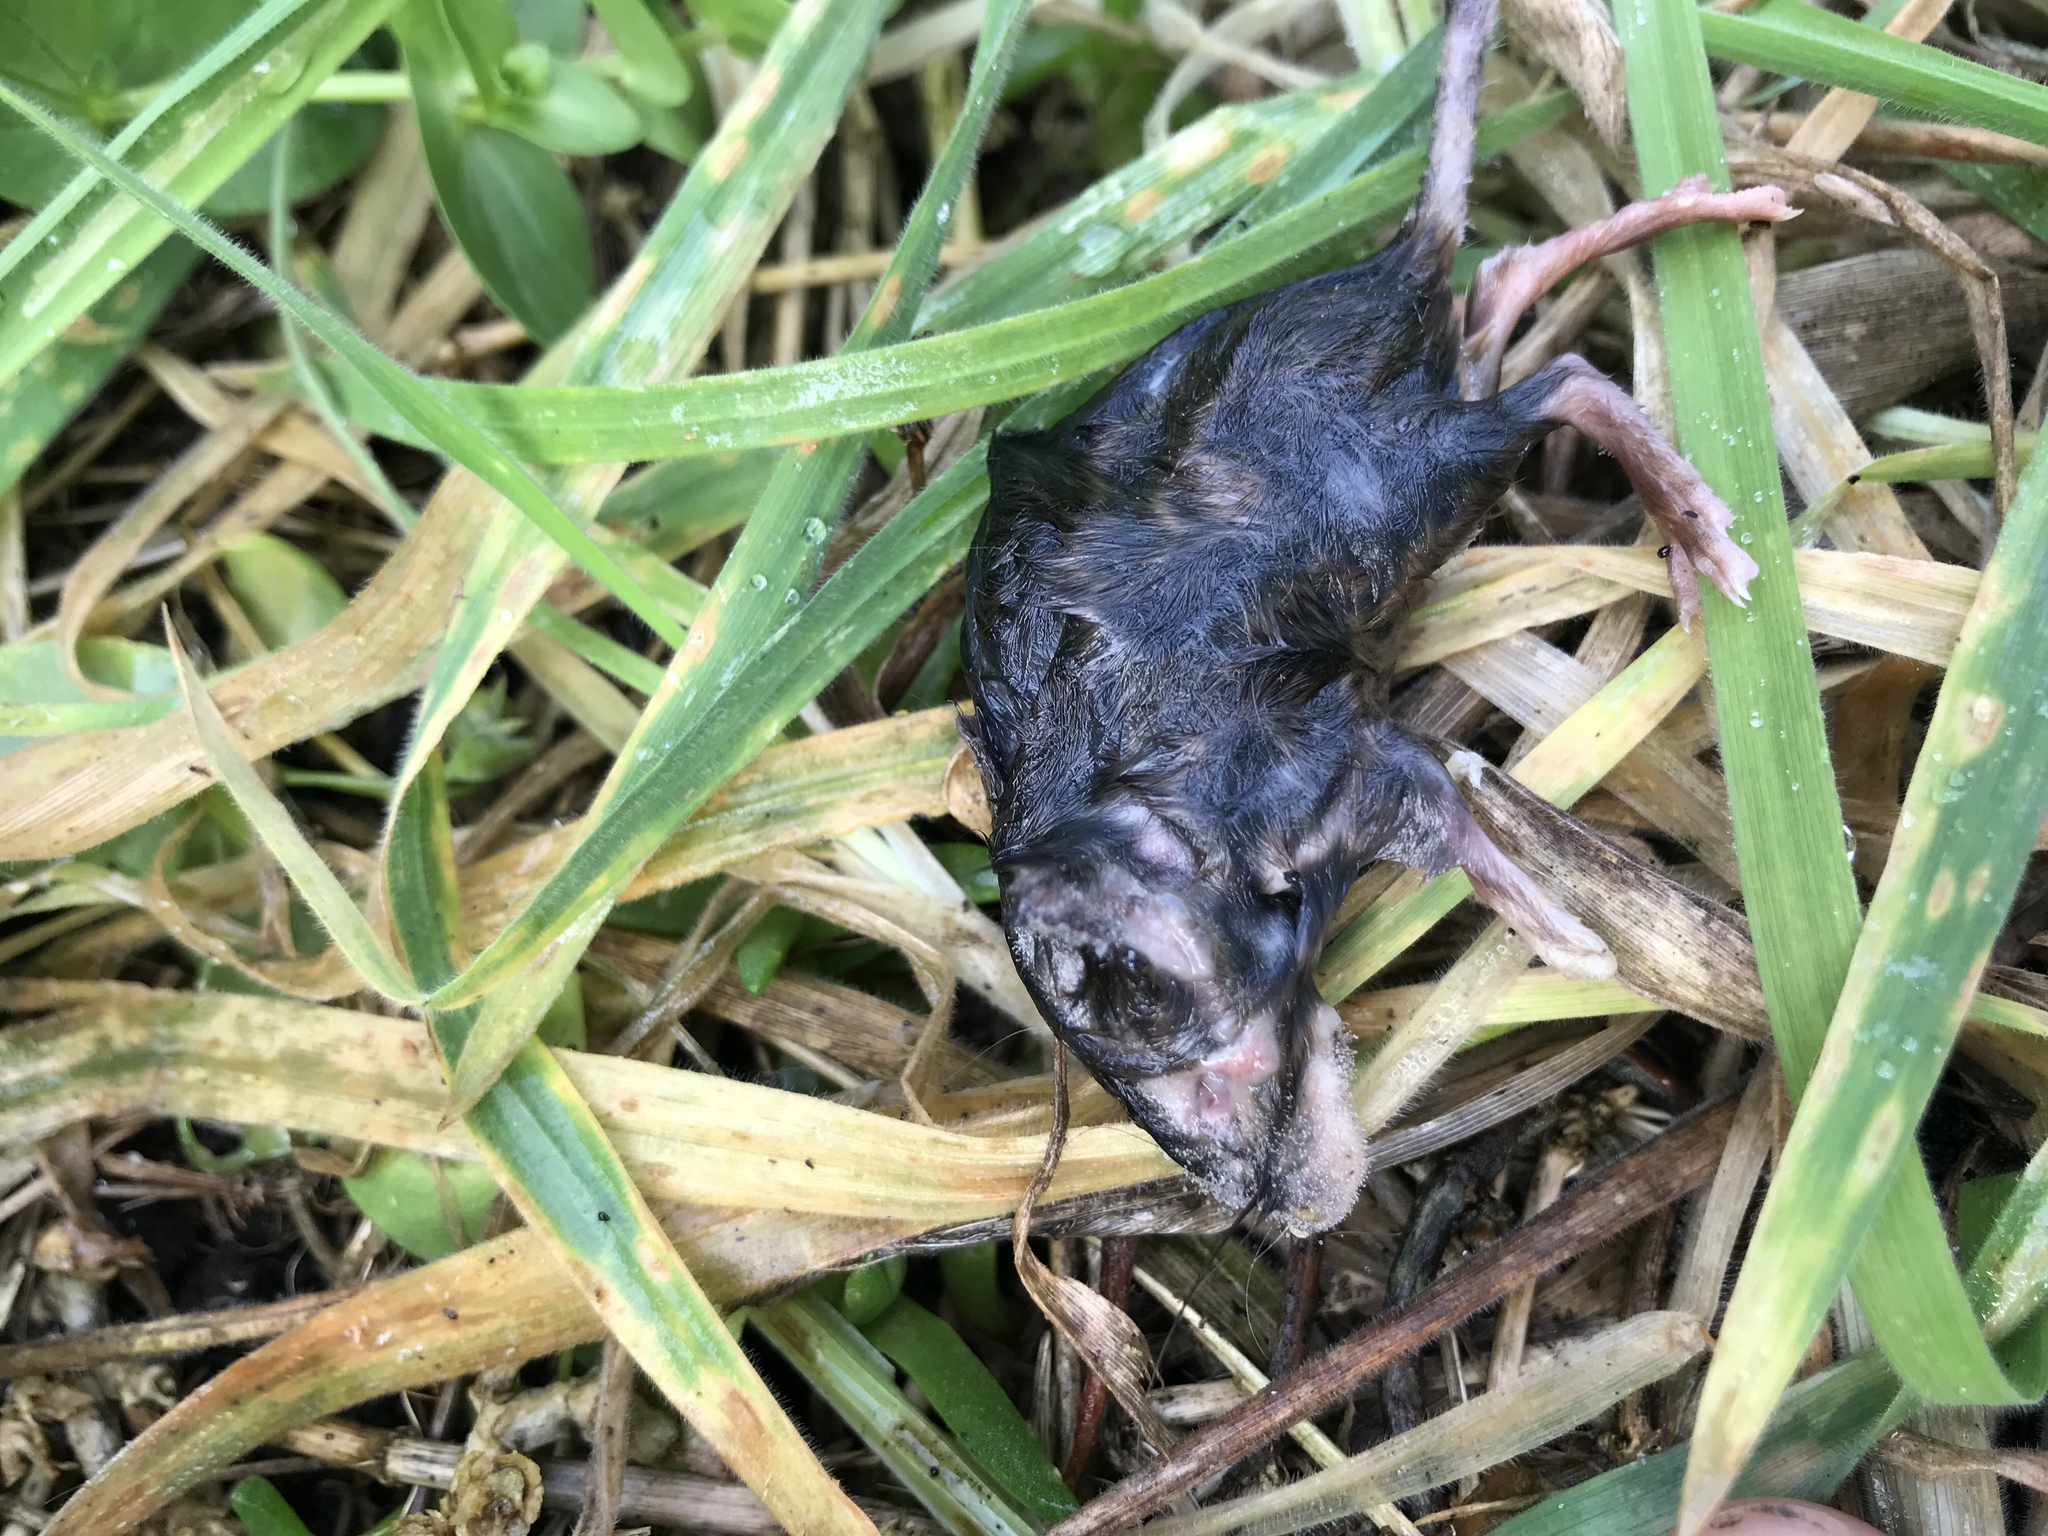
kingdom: Animalia
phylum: Chordata
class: Mammalia
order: Rodentia
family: Muridae
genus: Rattus
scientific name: Rattus exulans
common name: Polynesian rat
